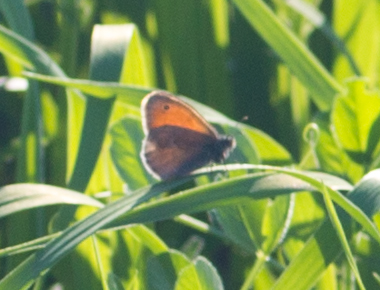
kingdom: Animalia
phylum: Arthropoda
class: Insecta
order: Lepidoptera
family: Nymphalidae
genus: Coenonympha
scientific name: Coenonympha pamphilus
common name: Small heath
